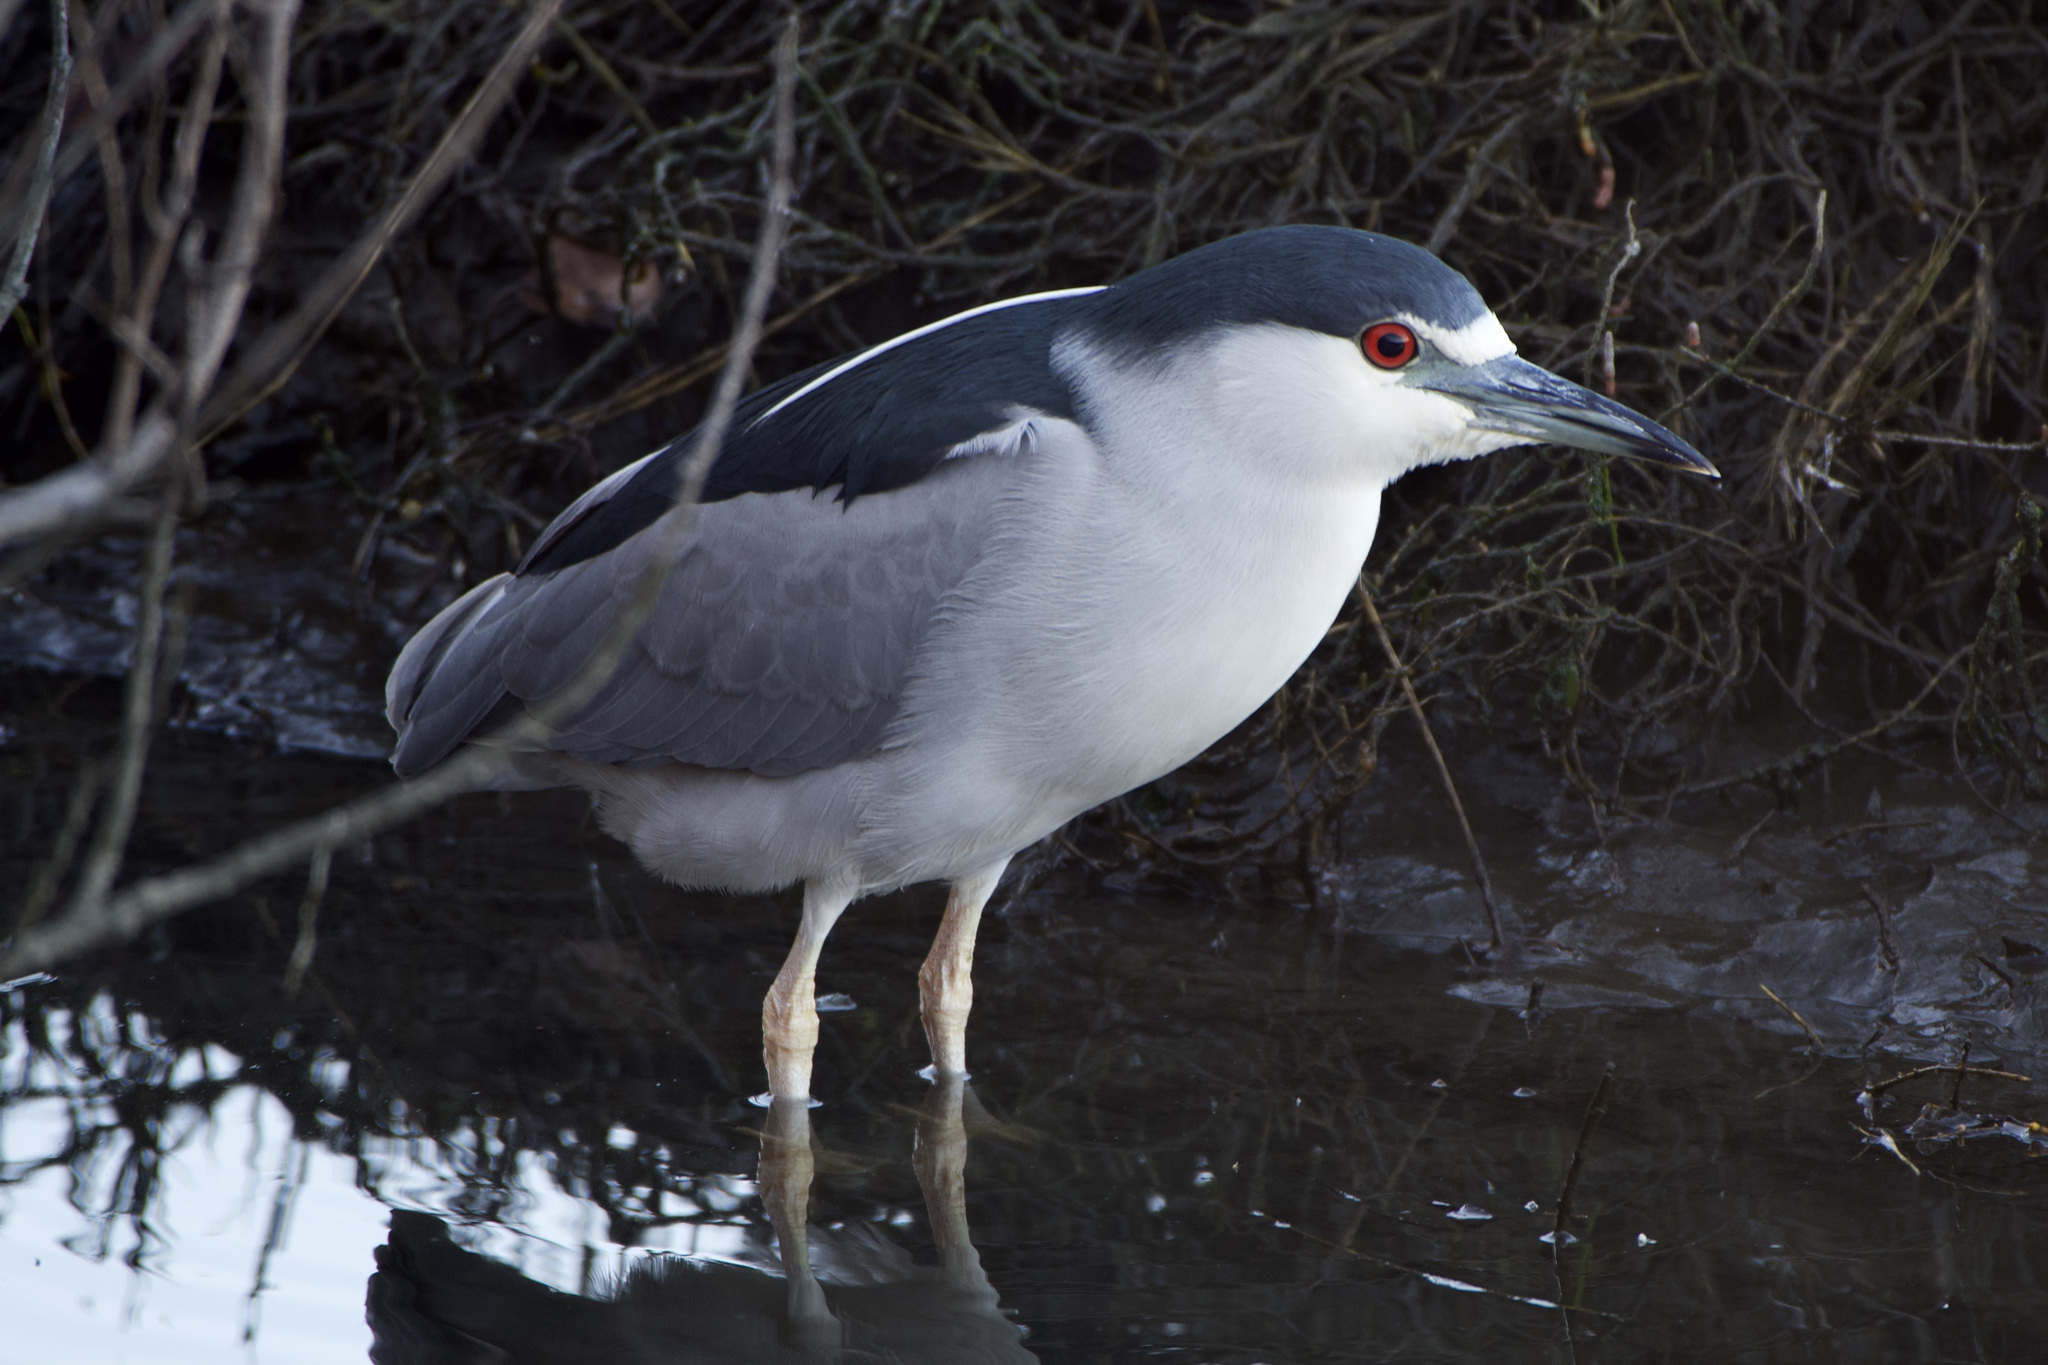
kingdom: Animalia
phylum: Chordata
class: Aves
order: Pelecaniformes
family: Ardeidae
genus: Nycticorax
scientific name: Nycticorax nycticorax
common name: Black-crowned night heron
